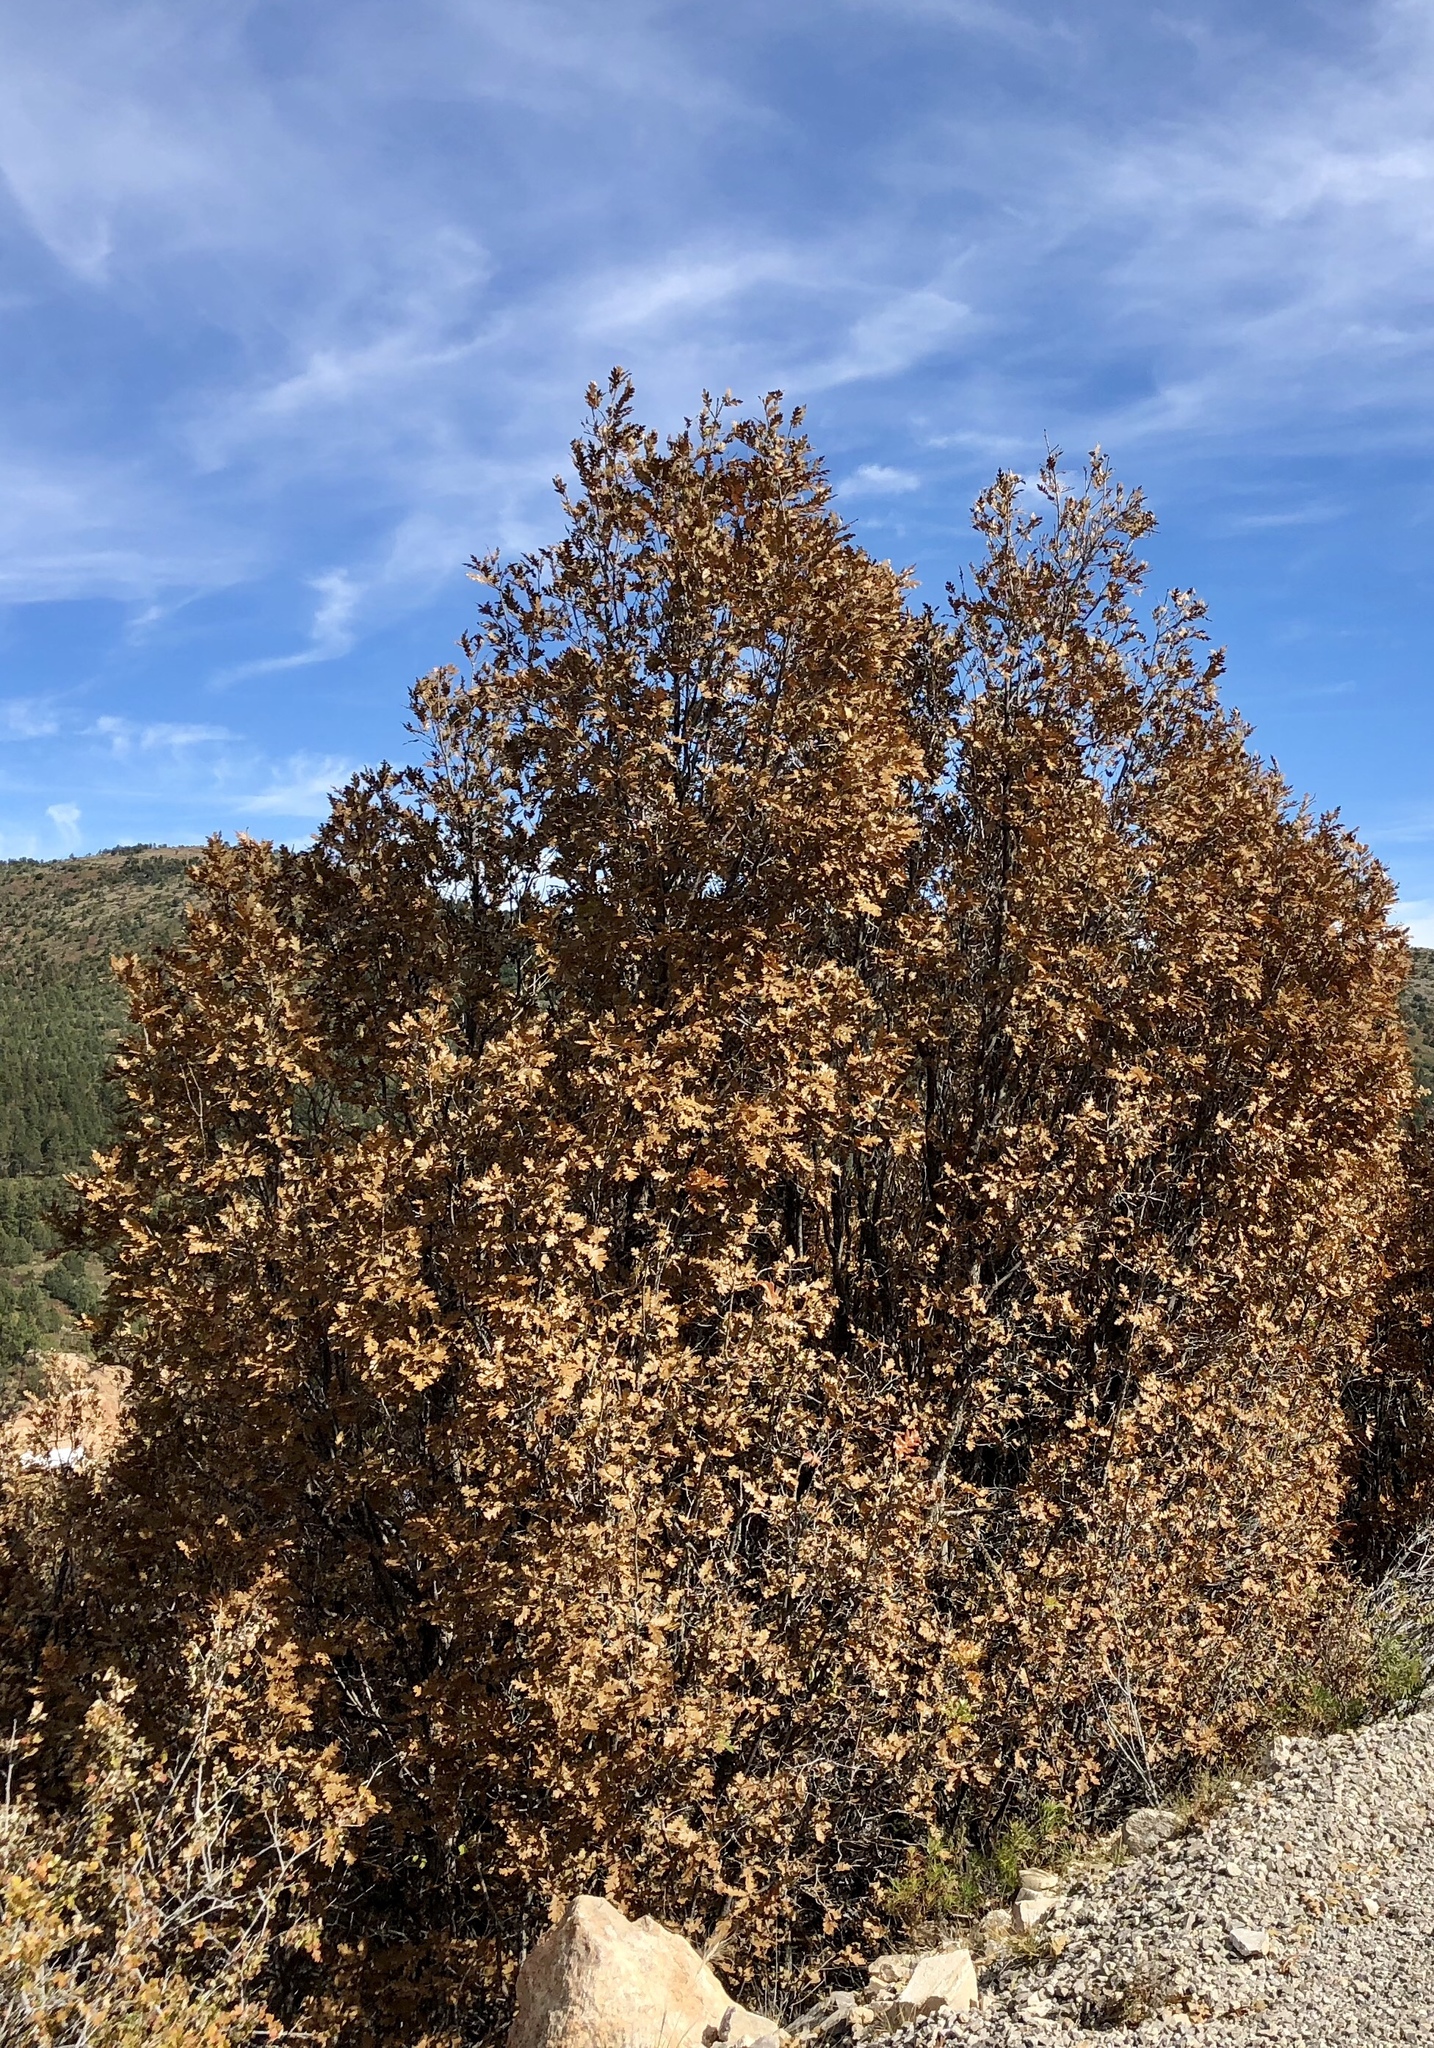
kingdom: Plantae
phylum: Tracheophyta
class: Magnoliopsida
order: Fagales
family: Fagaceae
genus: Quercus
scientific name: Quercus gambelii
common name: Gambel oak
